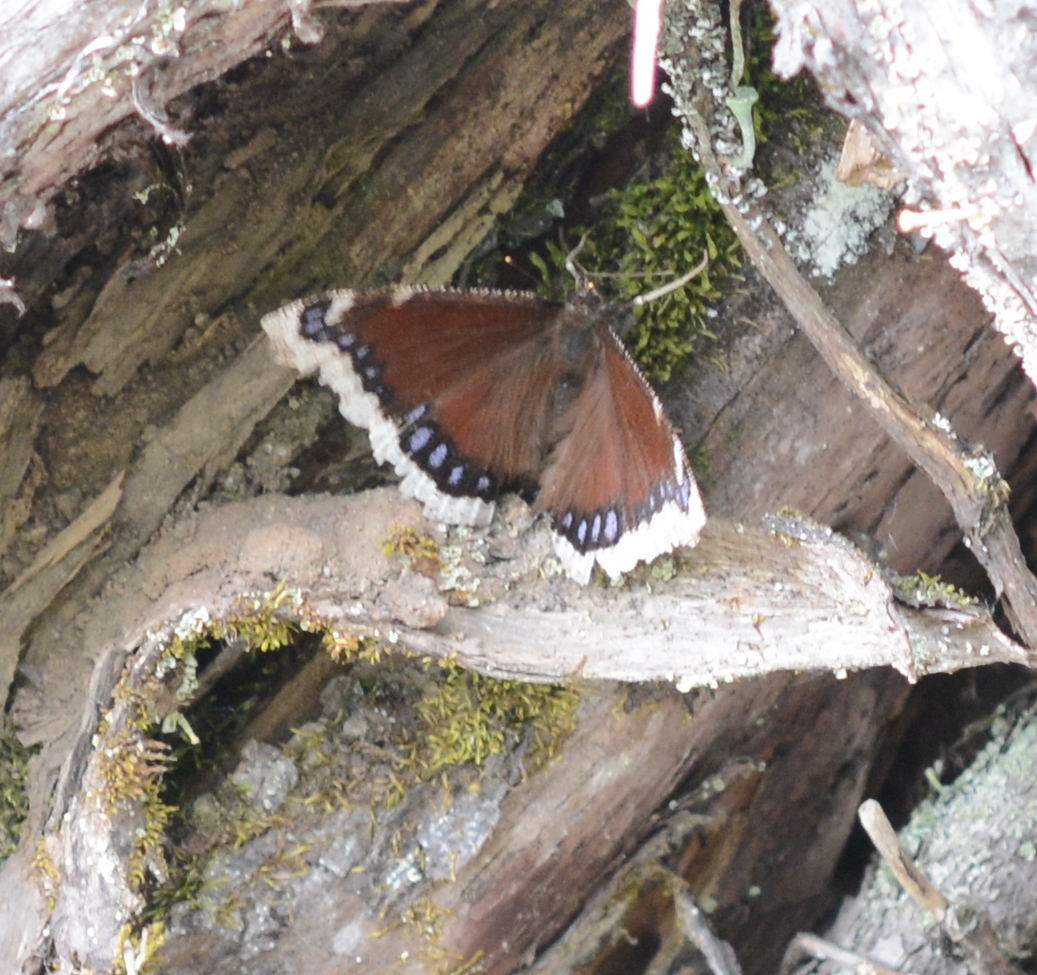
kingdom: Animalia
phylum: Arthropoda
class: Insecta
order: Lepidoptera
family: Nymphalidae
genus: Nymphalis
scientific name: Nymphalis antiopa
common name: Camberwell beauty
